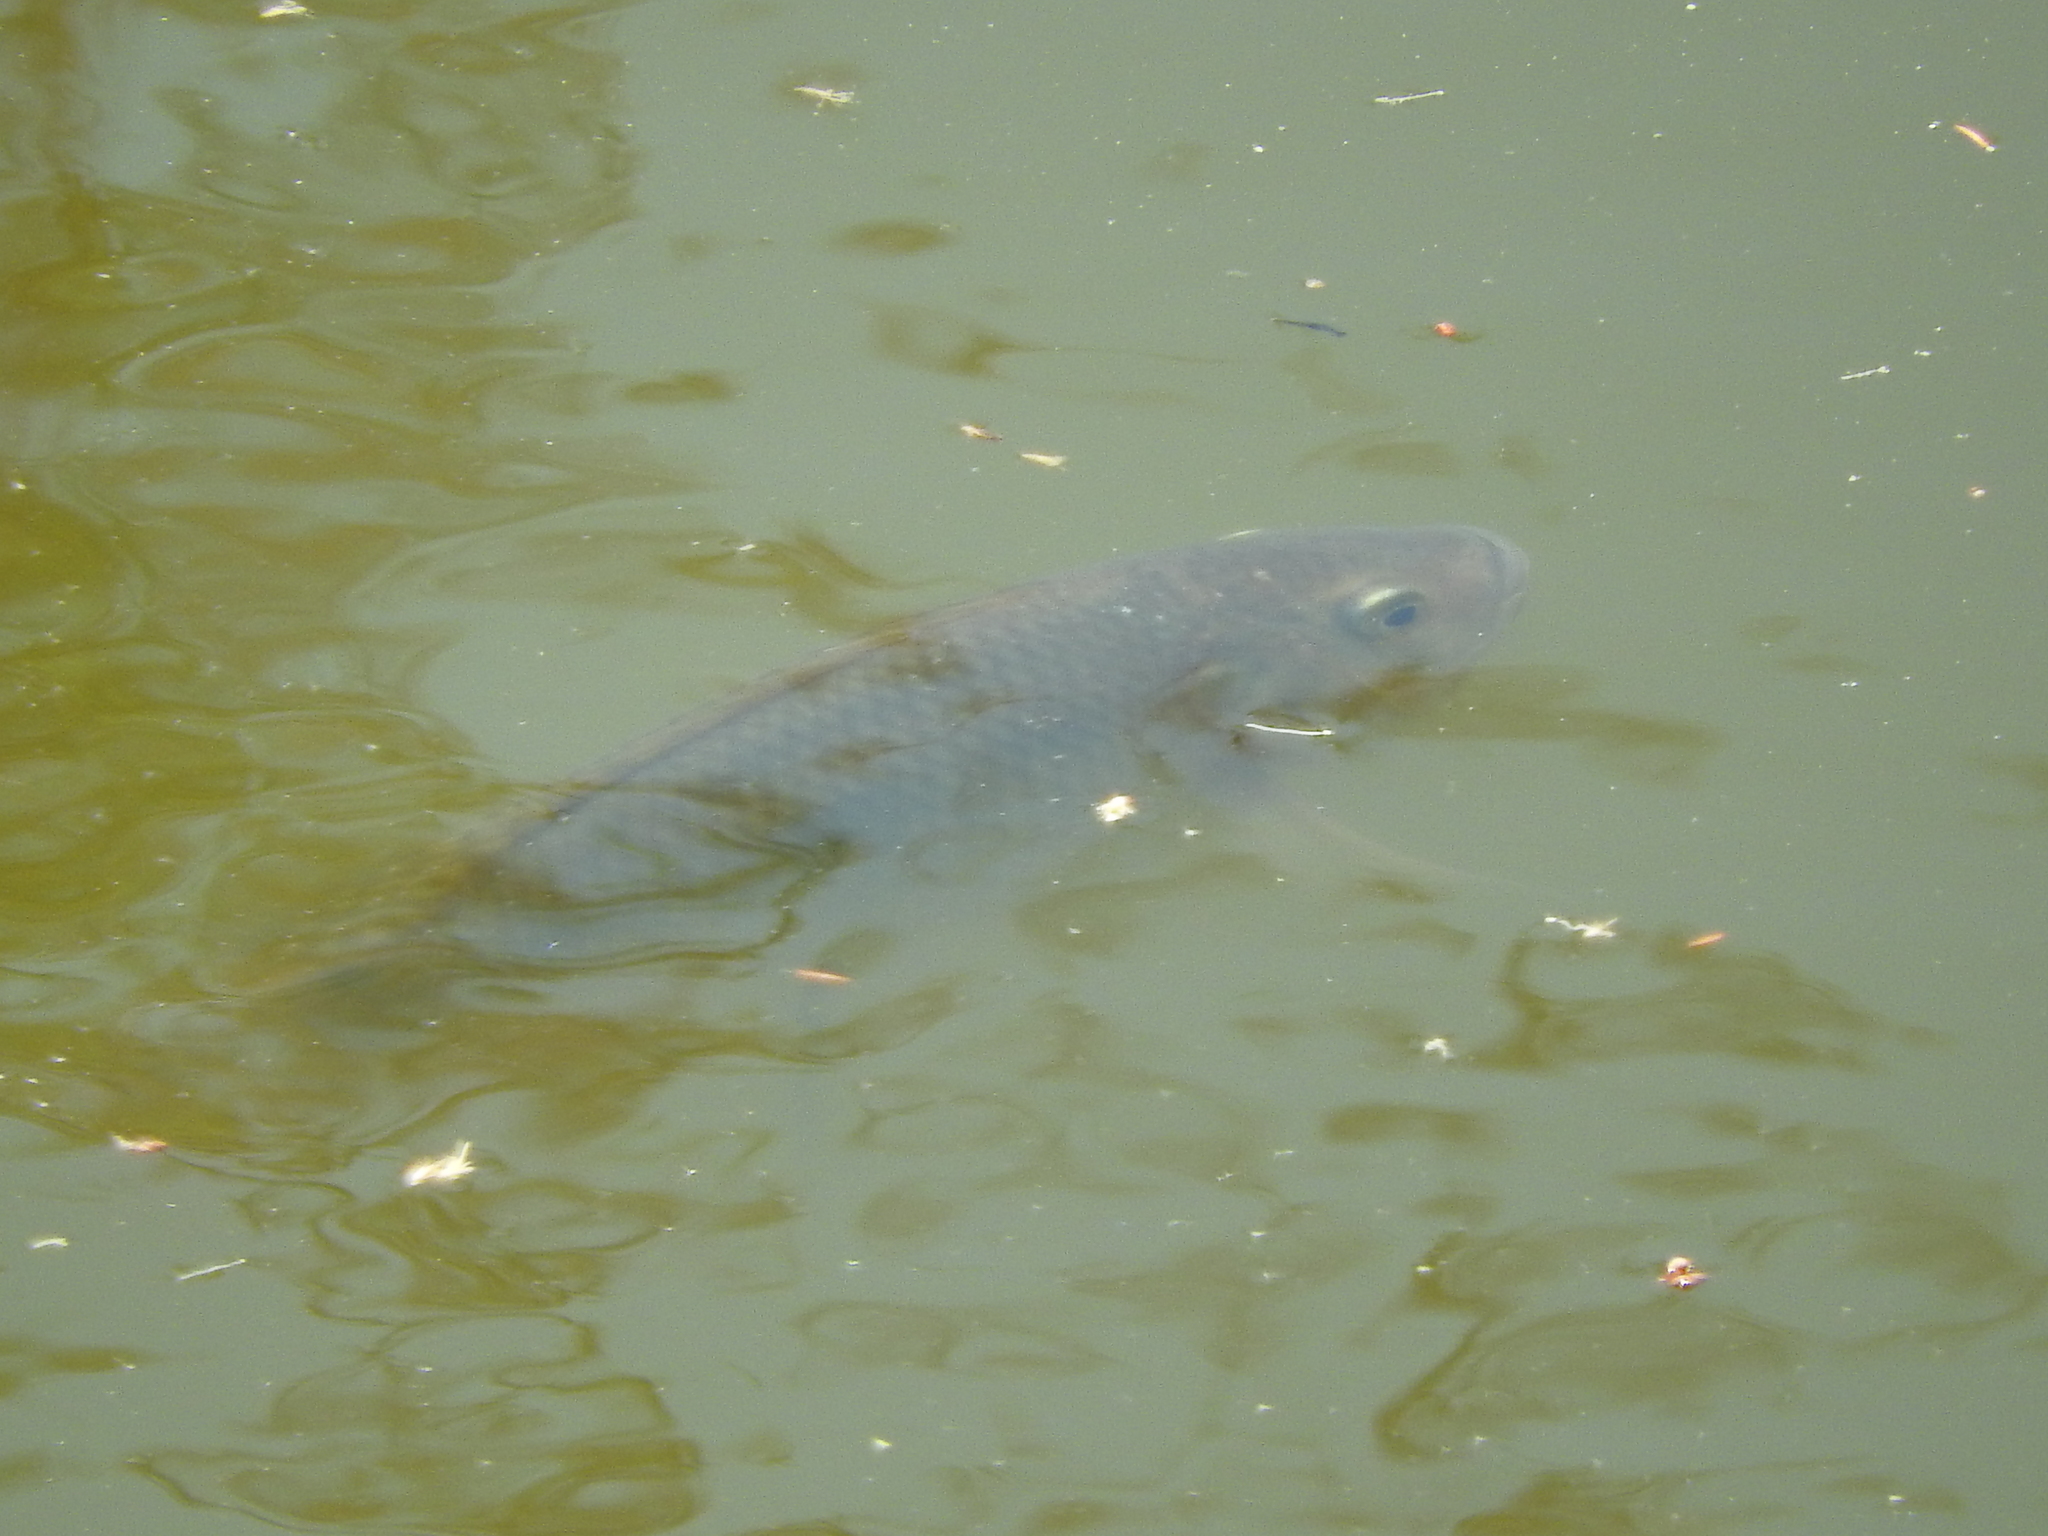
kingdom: Animalia
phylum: Chordata
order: Perciformes
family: Cichlidae
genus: Oreochromis
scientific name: Oreochromis niloticus
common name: Nile tilapia
